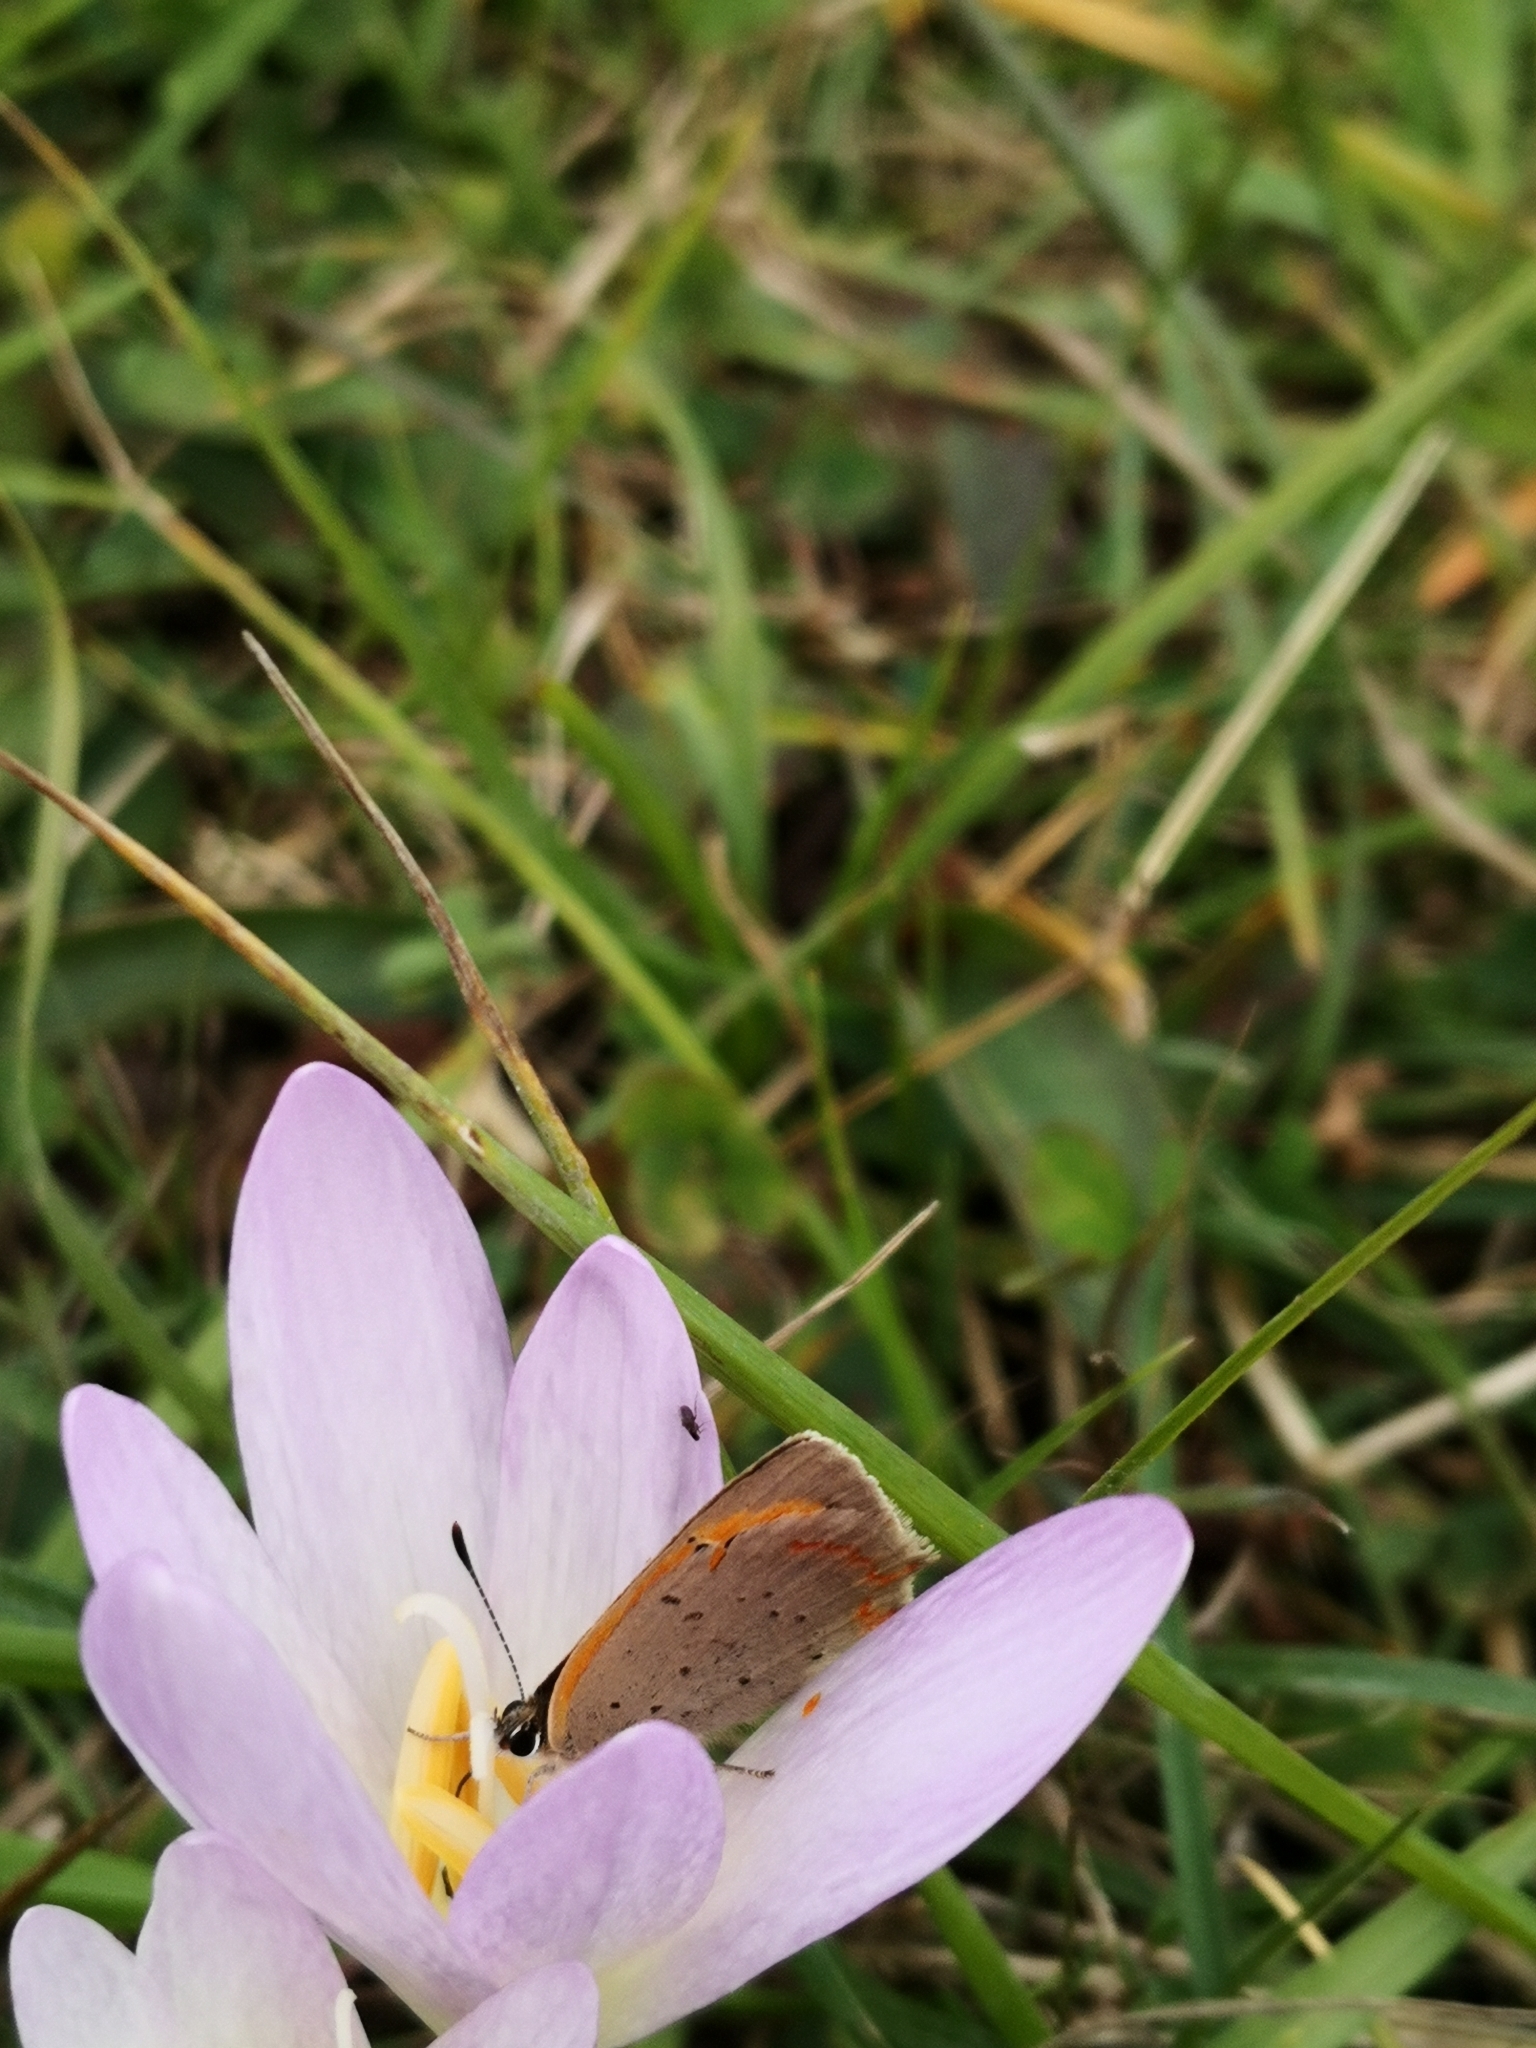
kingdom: Animalia
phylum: Arthropoda
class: Insecta
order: Lepidoptera
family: Lycaenidae
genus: Lycaena
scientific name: Lycaena phlaeas
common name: Small copper
